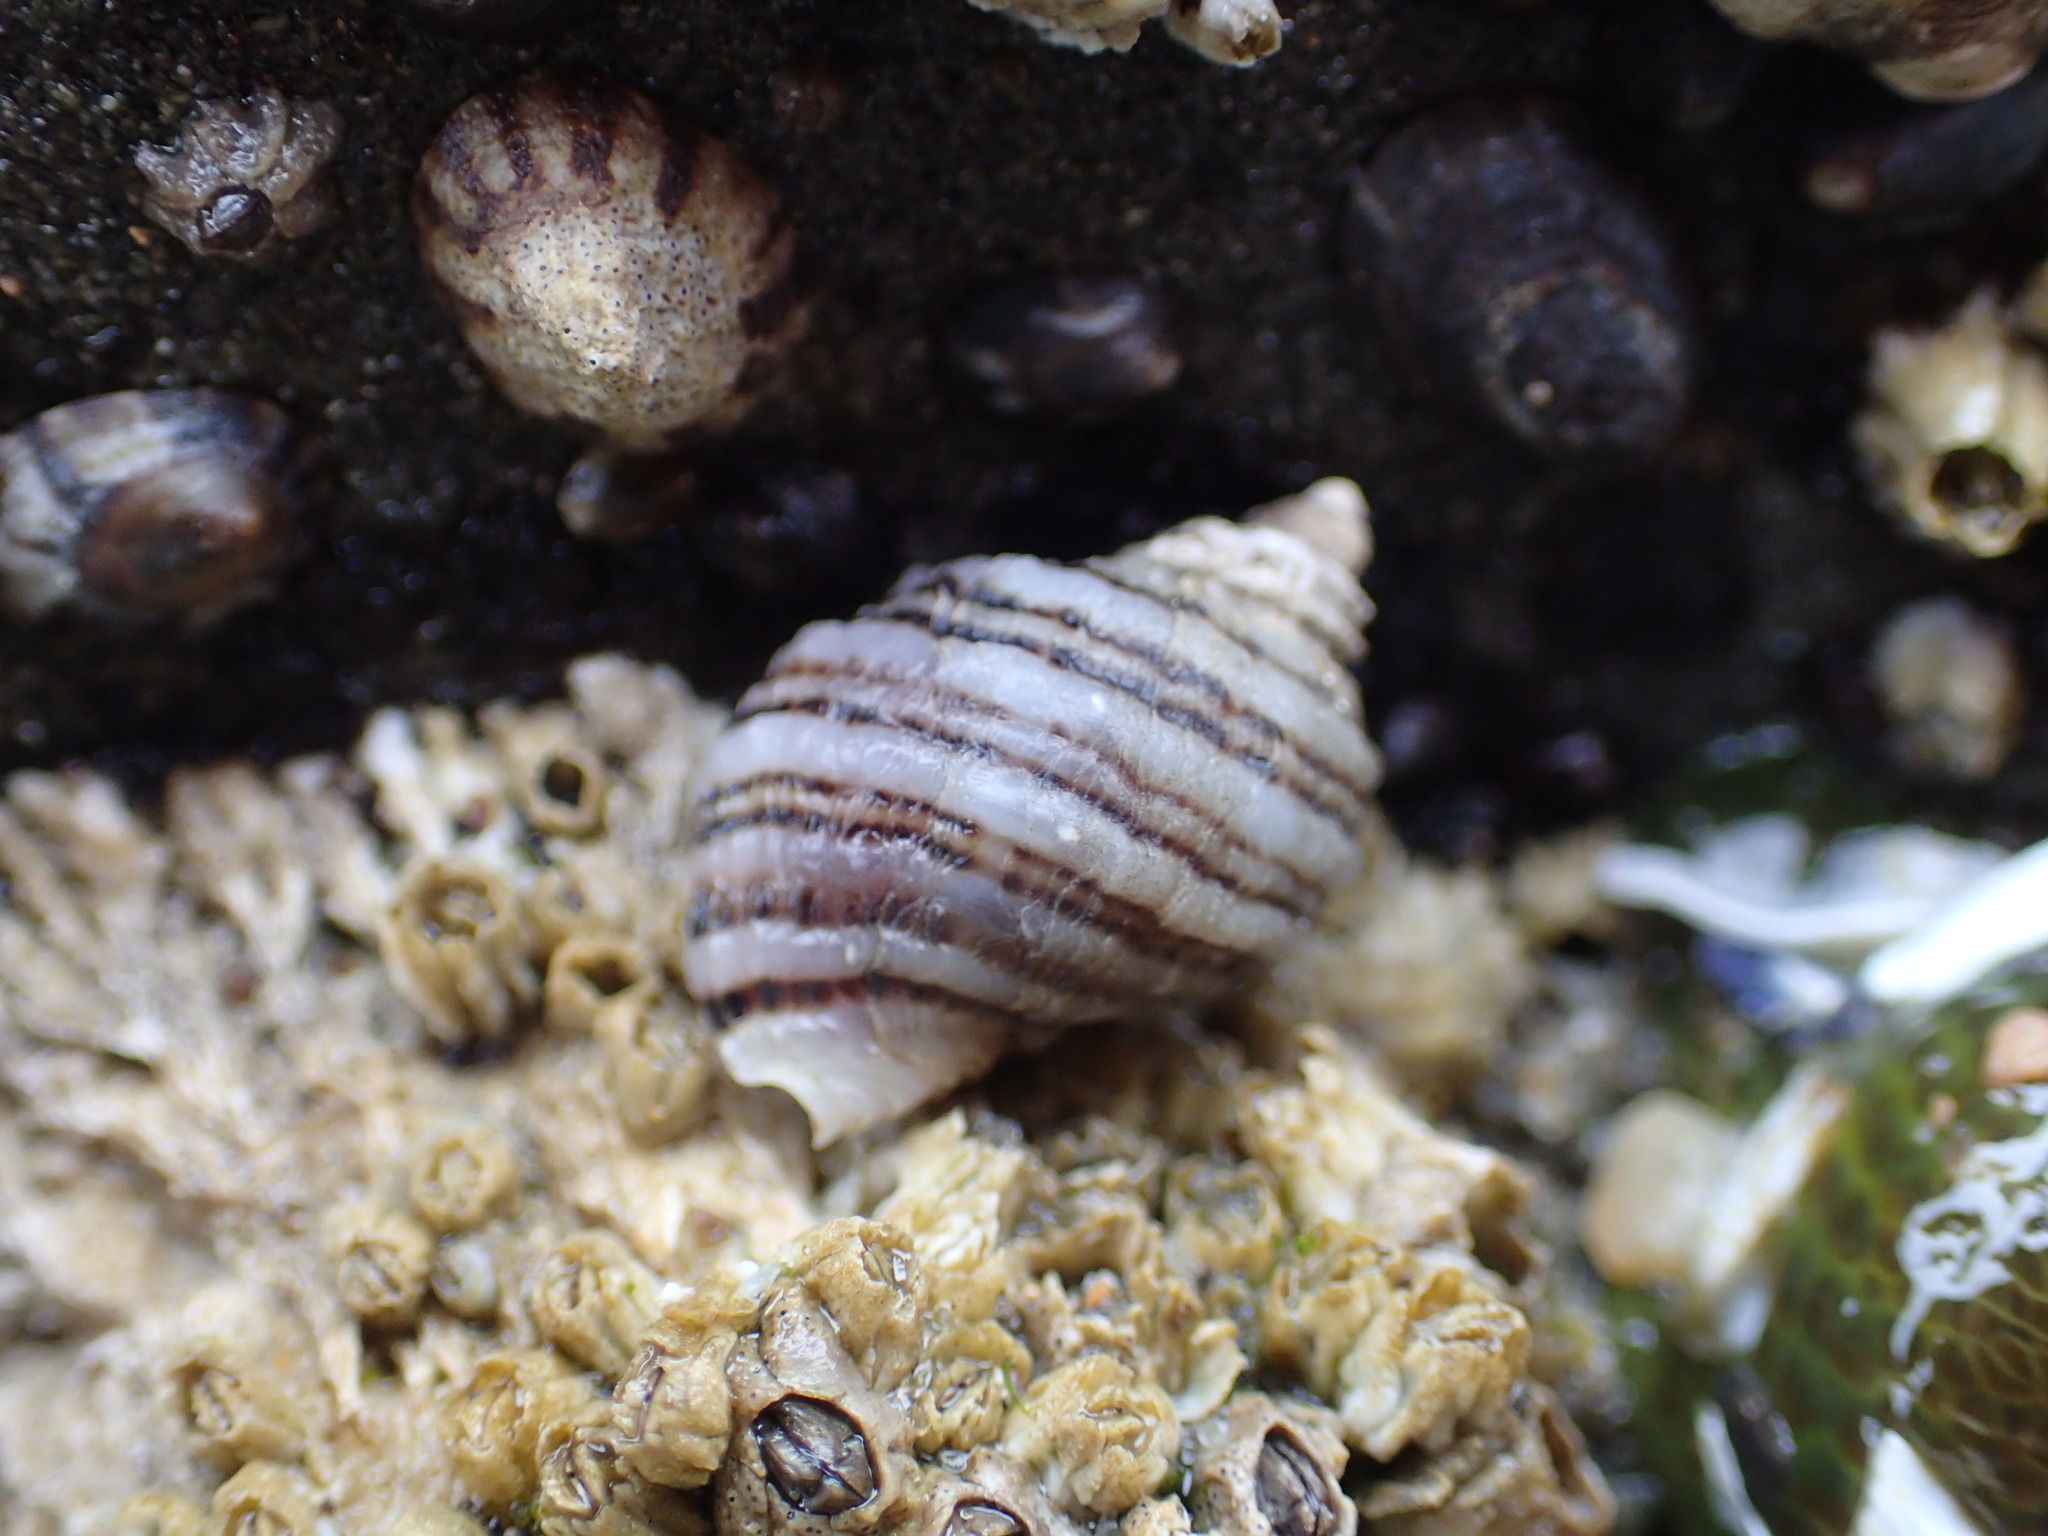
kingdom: Animalia
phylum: Mollusca
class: Gastropoda
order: Neogastropoda
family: Muricidae
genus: Nucella
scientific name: Nucella ostrina
